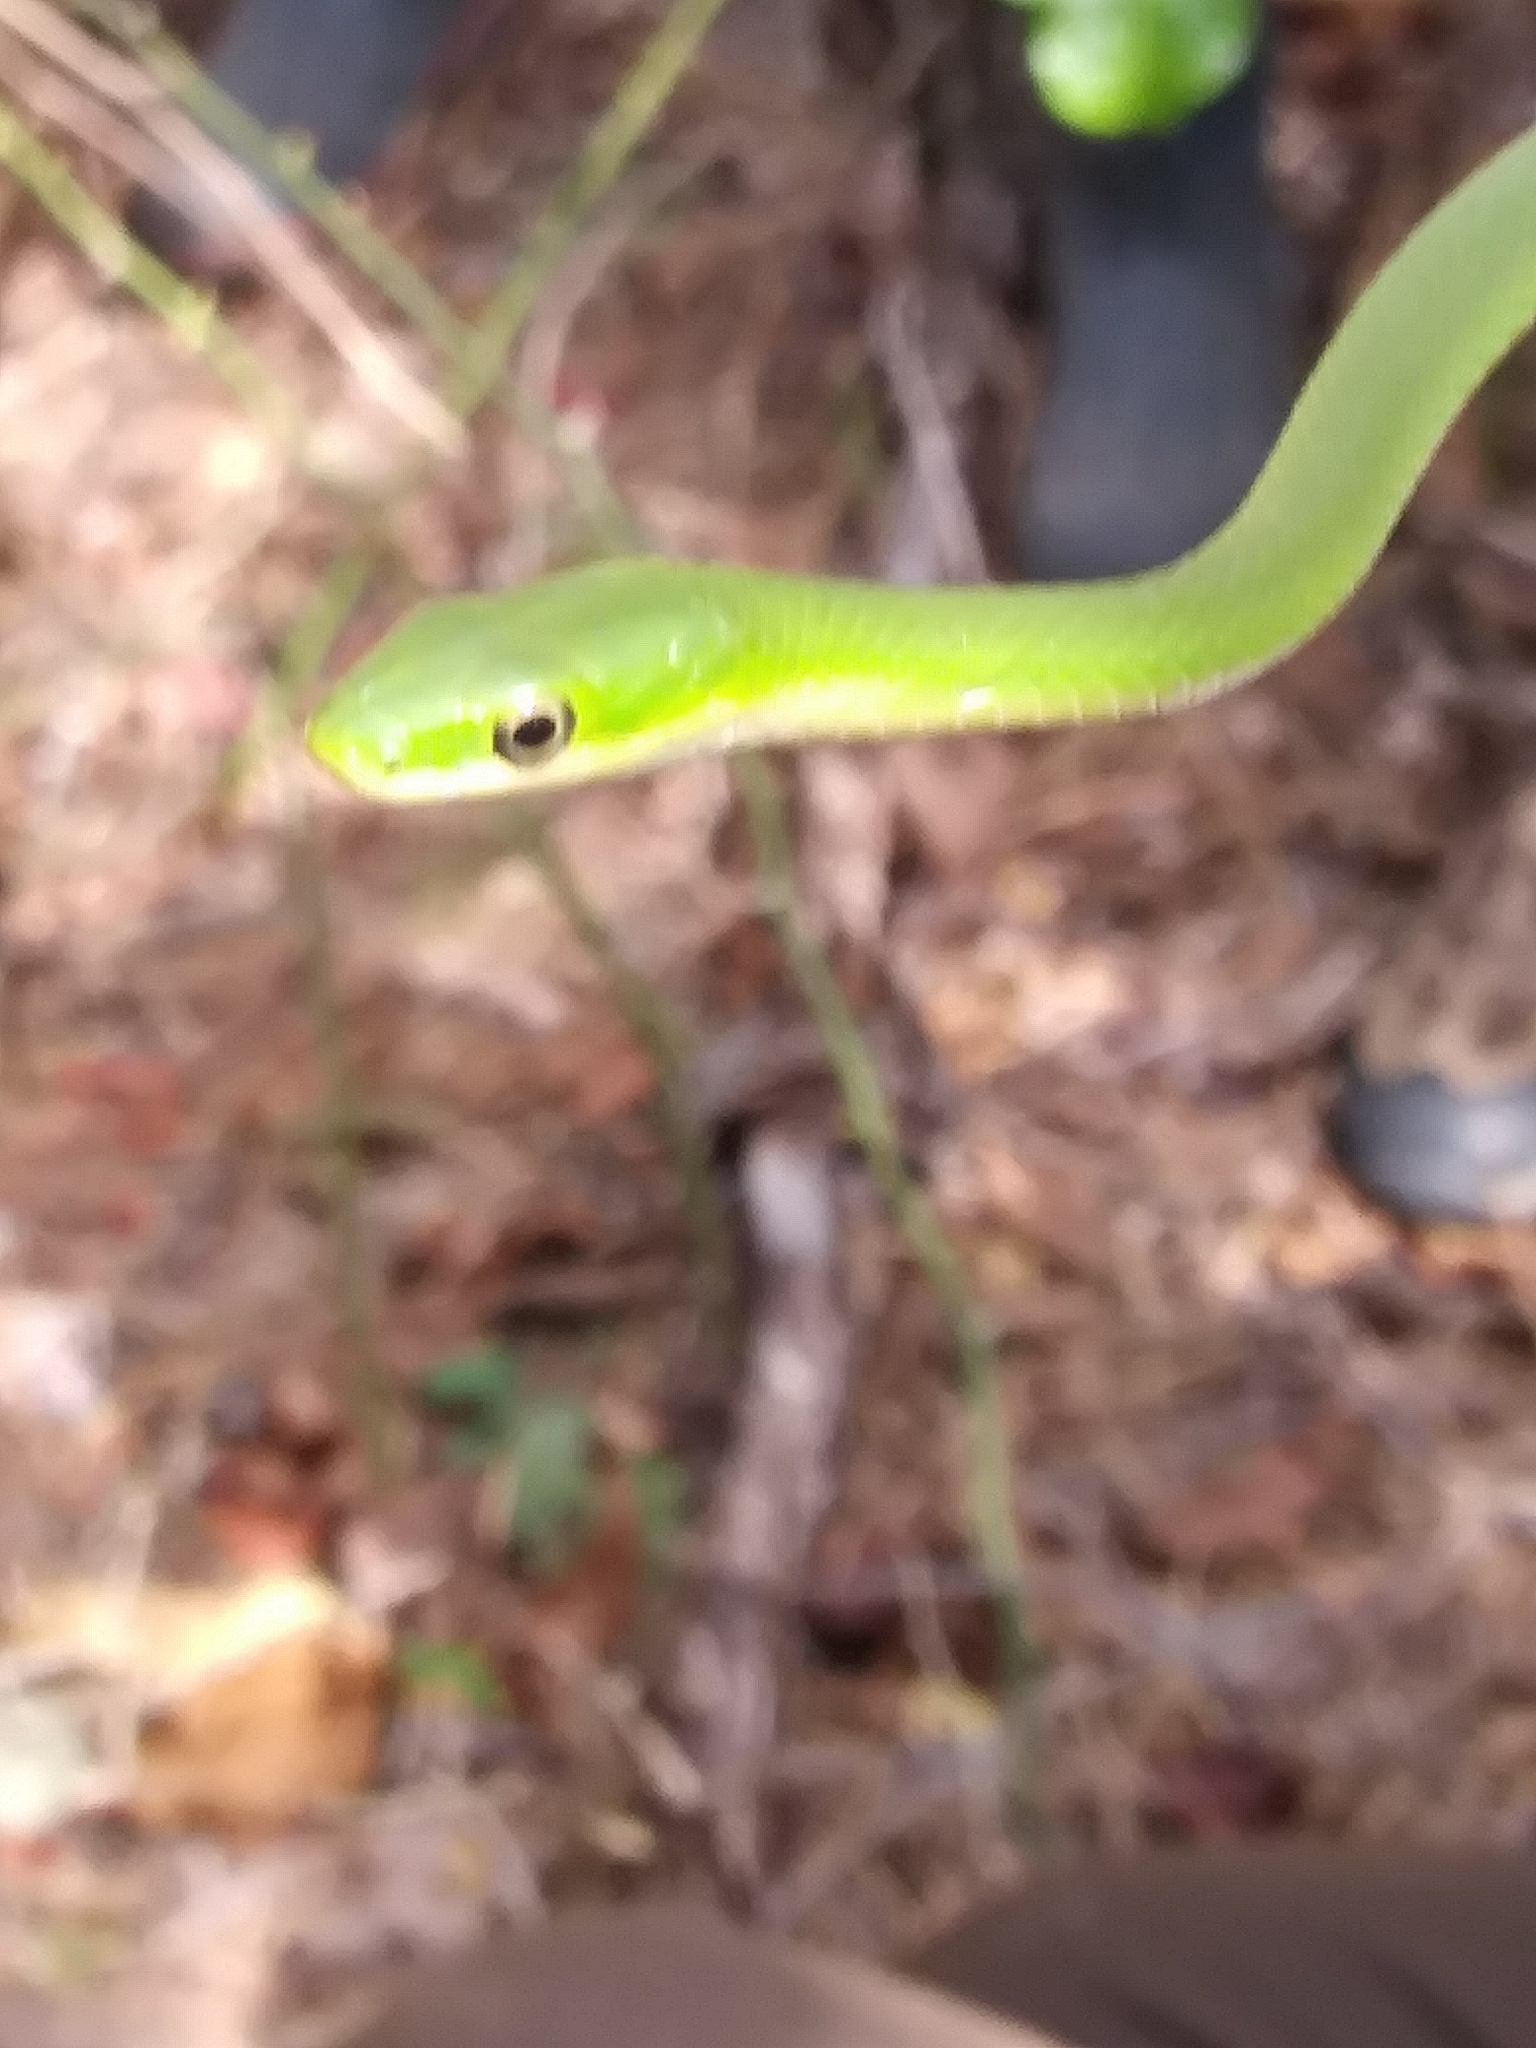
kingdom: Animalia
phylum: Chordata
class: Squamata
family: Colubridae
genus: Opheodrys
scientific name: Opheodrys aestivus
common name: Rough greensnake
